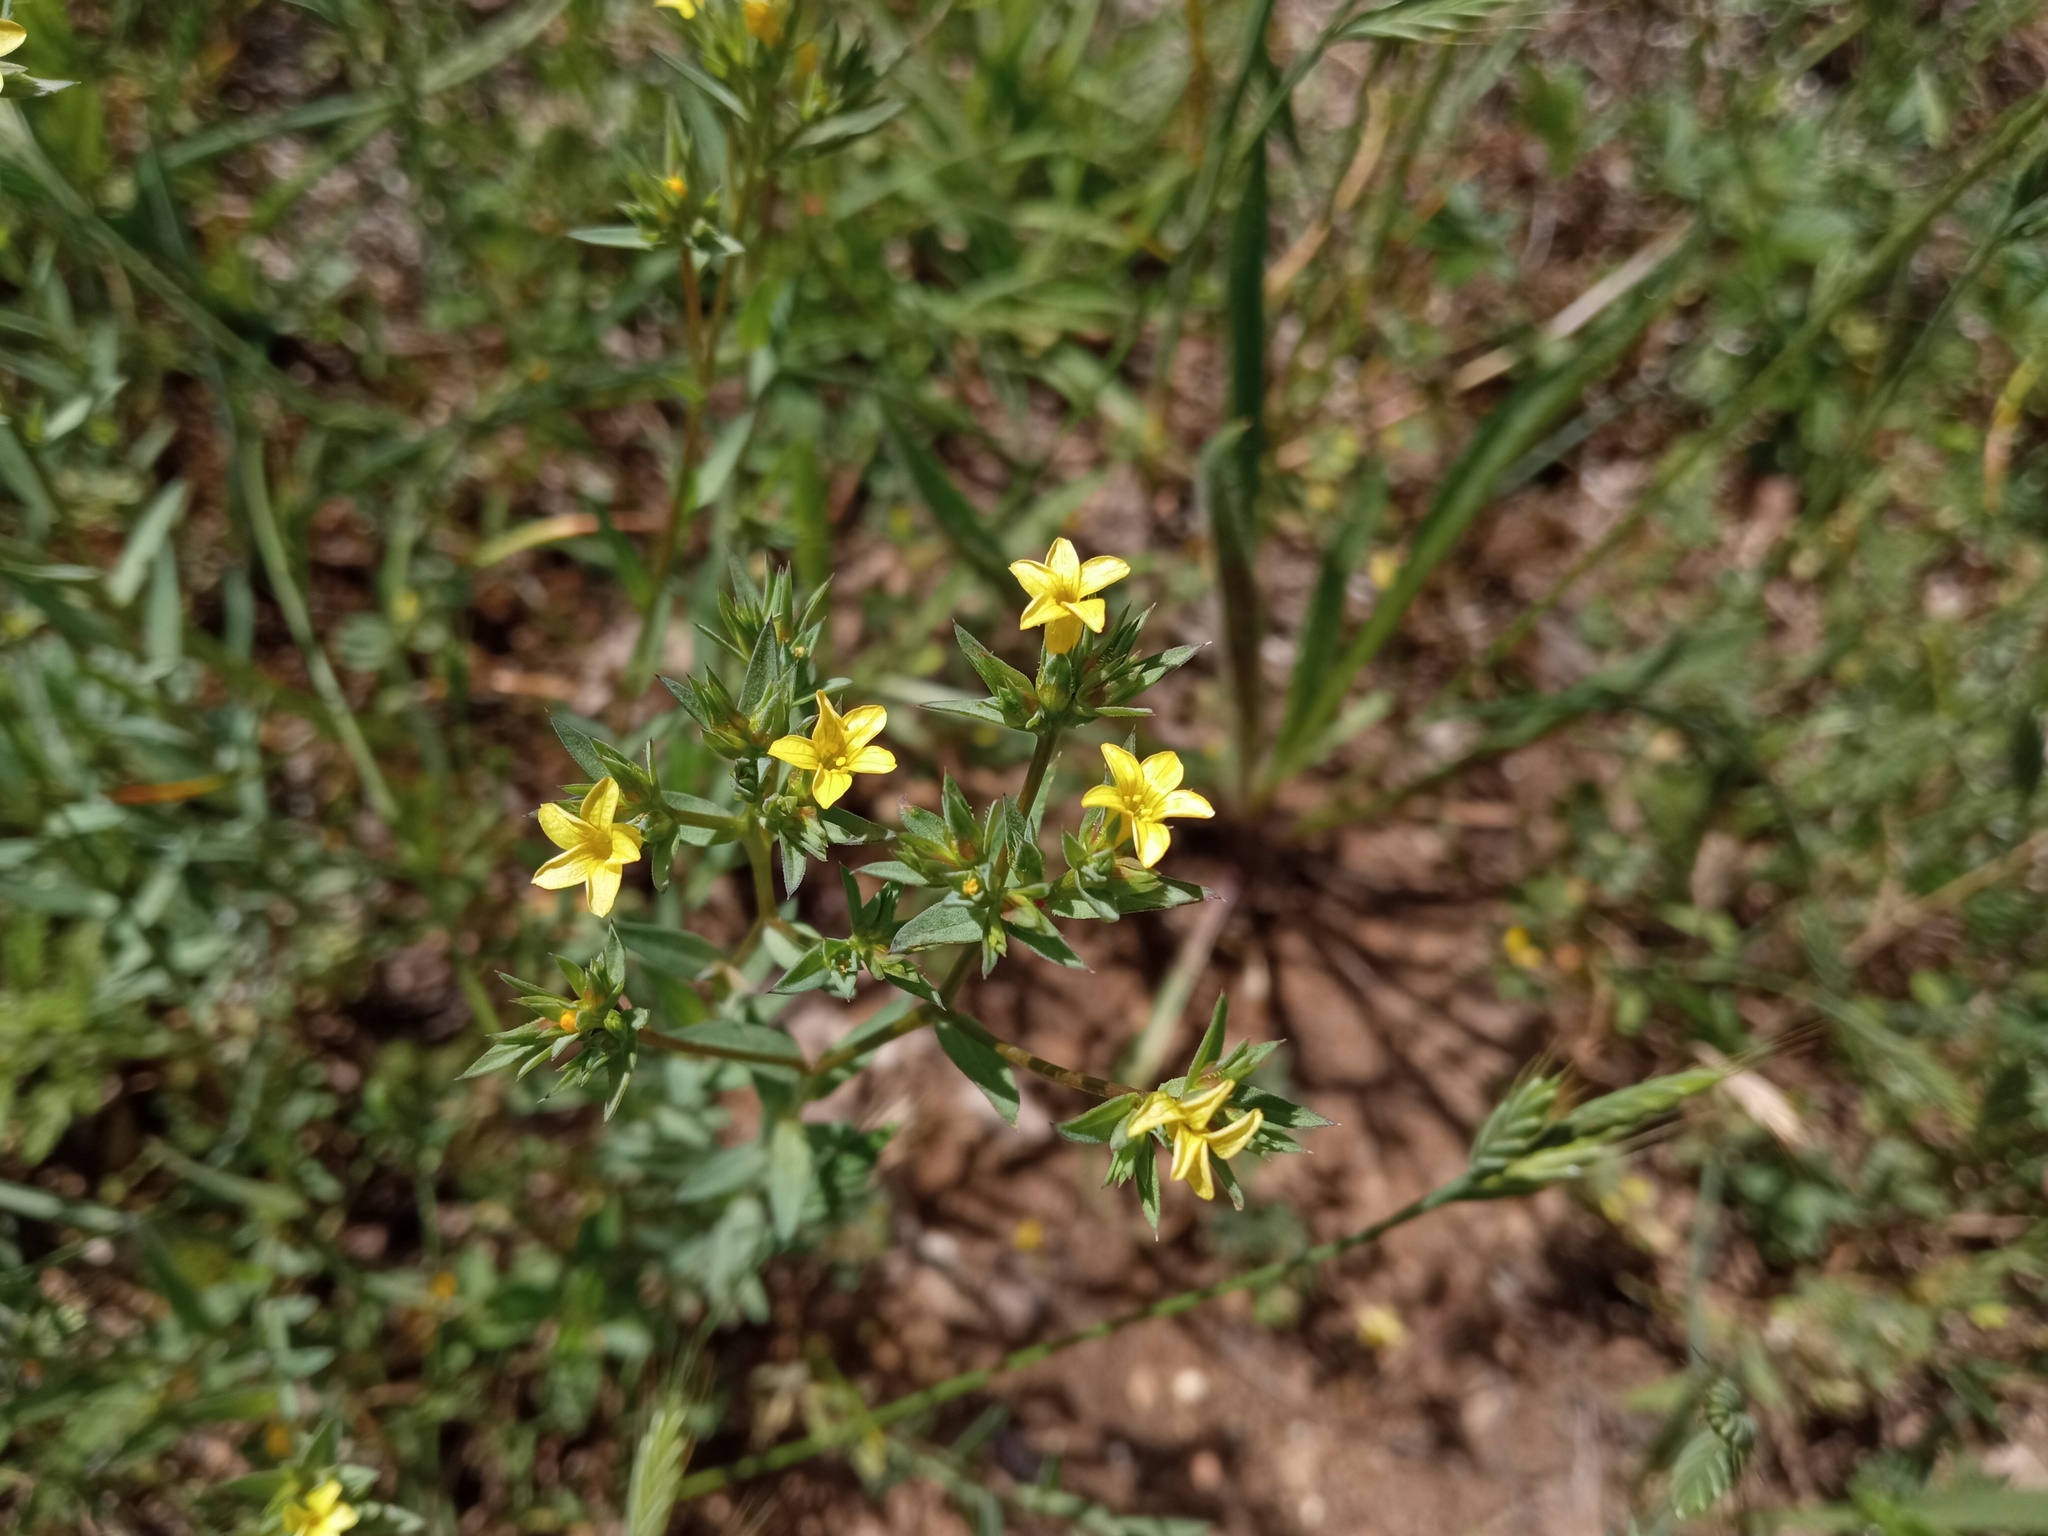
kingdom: Plantae
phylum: Tracheophyta
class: Magnoliopsida
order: Malpighiales
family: Linaceae
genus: Linum
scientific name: Linum strictum
